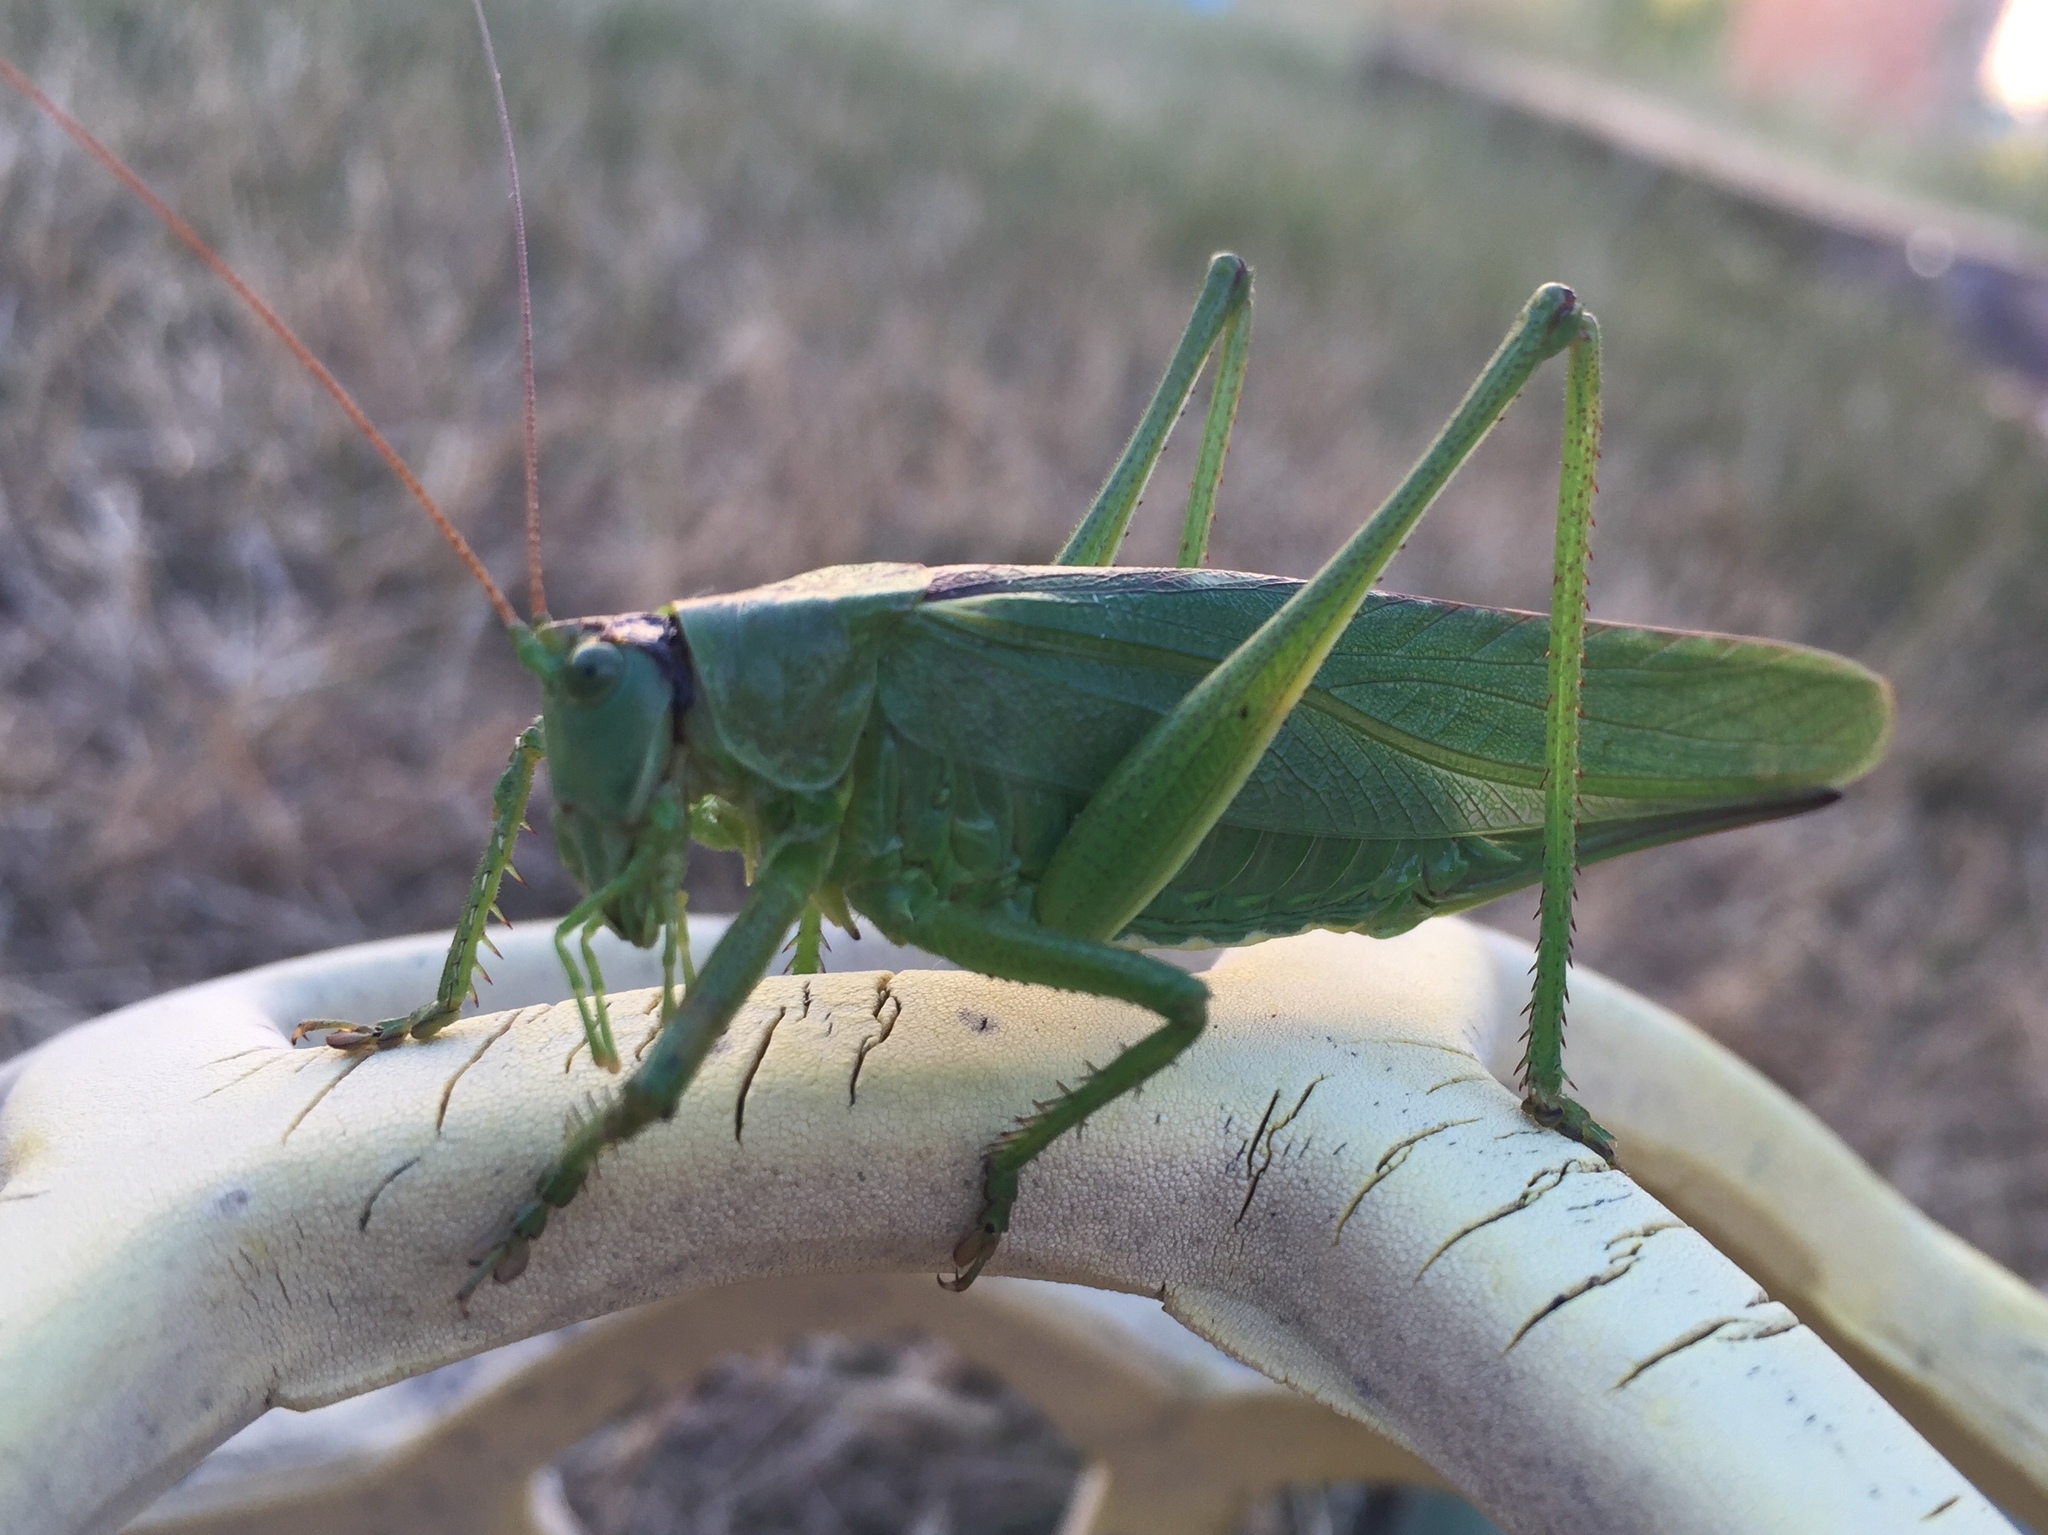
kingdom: Animalia
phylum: Arthropoda
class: Insecta
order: Orthoptera
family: Tettigoniidae
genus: Tettigonia
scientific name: Tettigonia viridissima
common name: Great green bush-cricket
